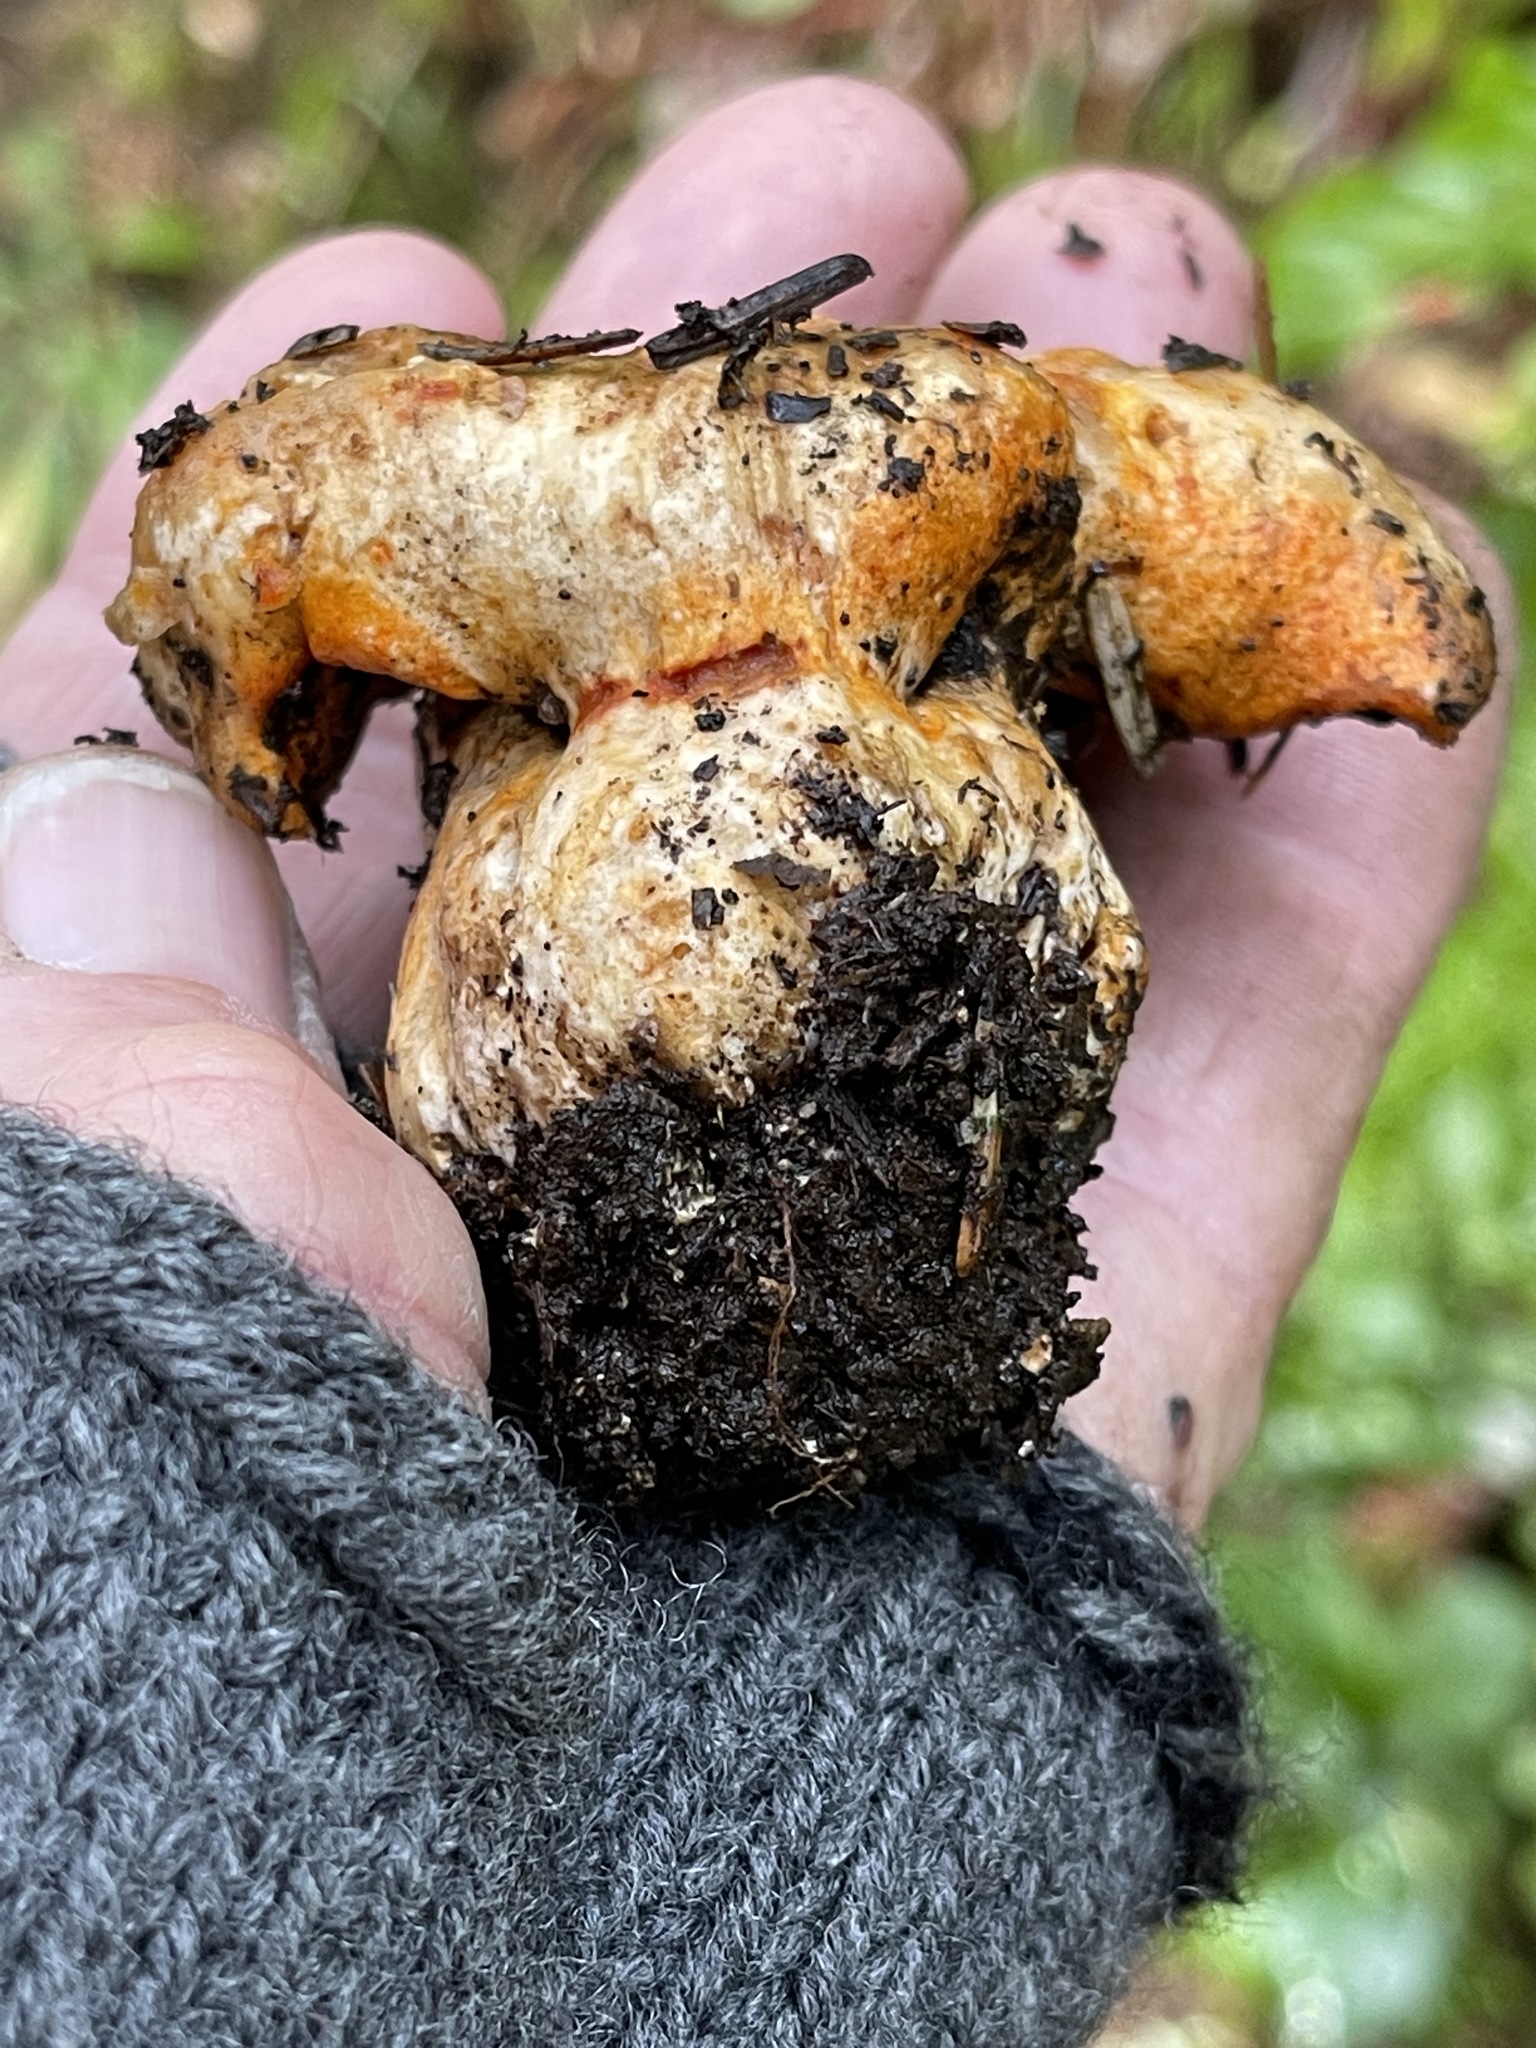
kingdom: Fungi
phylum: Ascomycota
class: Sordariomycetes
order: Hypocreales
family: Hypocreaceae
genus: Hypomyces
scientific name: Hypomyces lactifluorum
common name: Lobster mushroom
